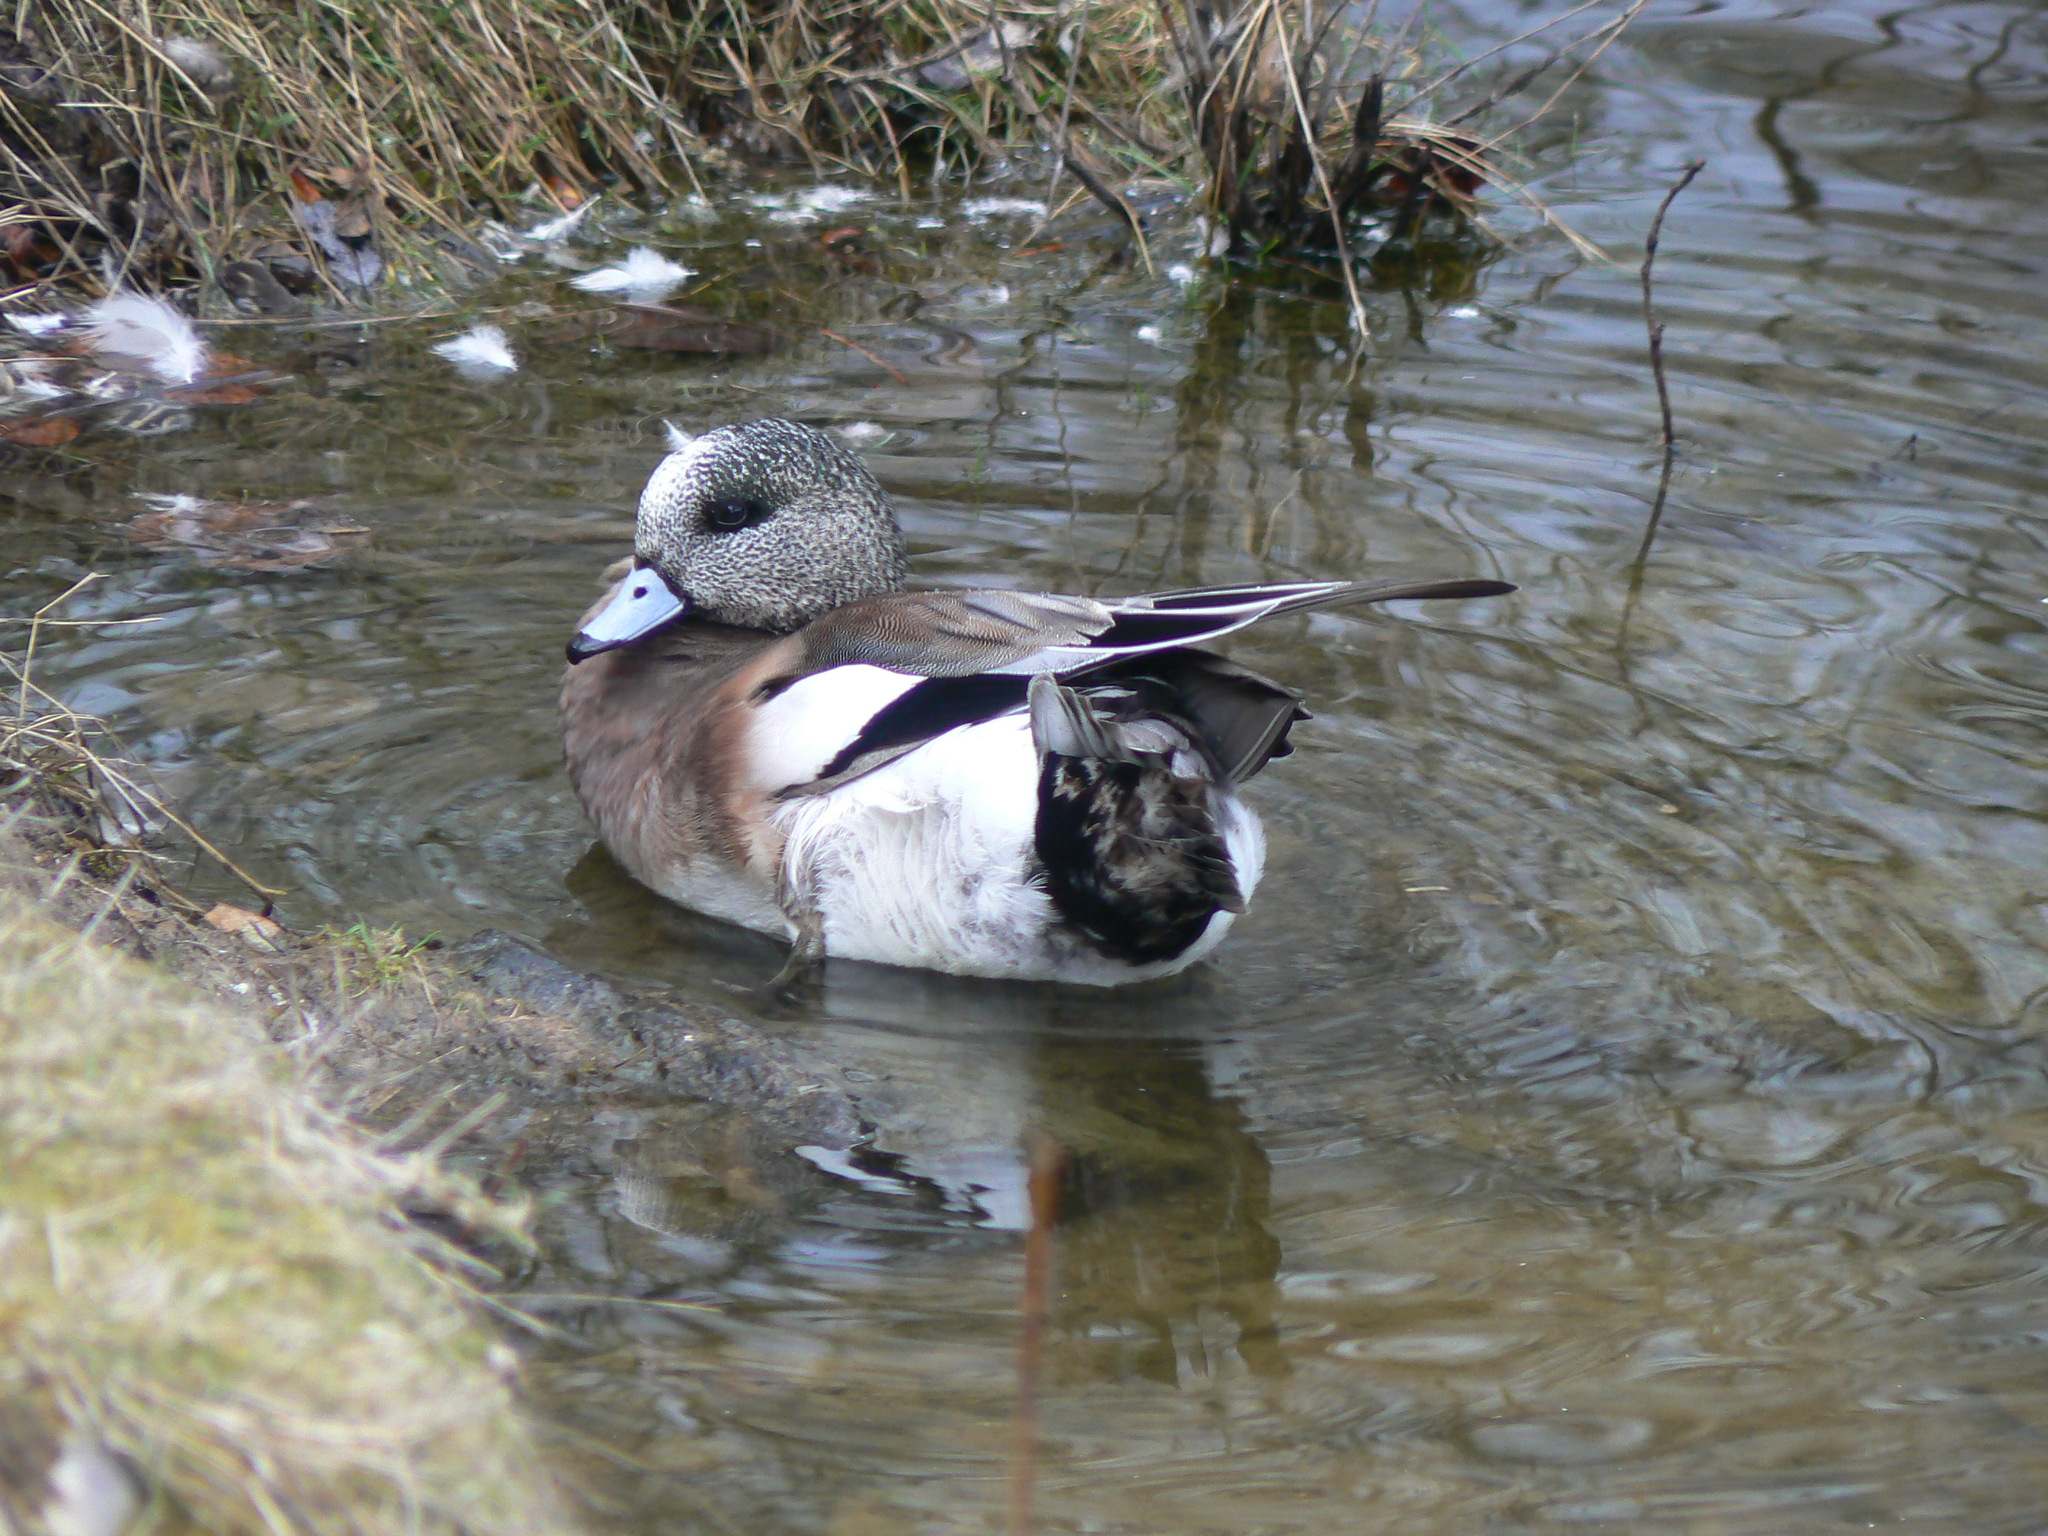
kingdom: Animalia
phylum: Chordata
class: Aves
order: Anseriformes
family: Anatidae
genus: Mareca
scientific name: Mareca americana
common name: American wigeon
